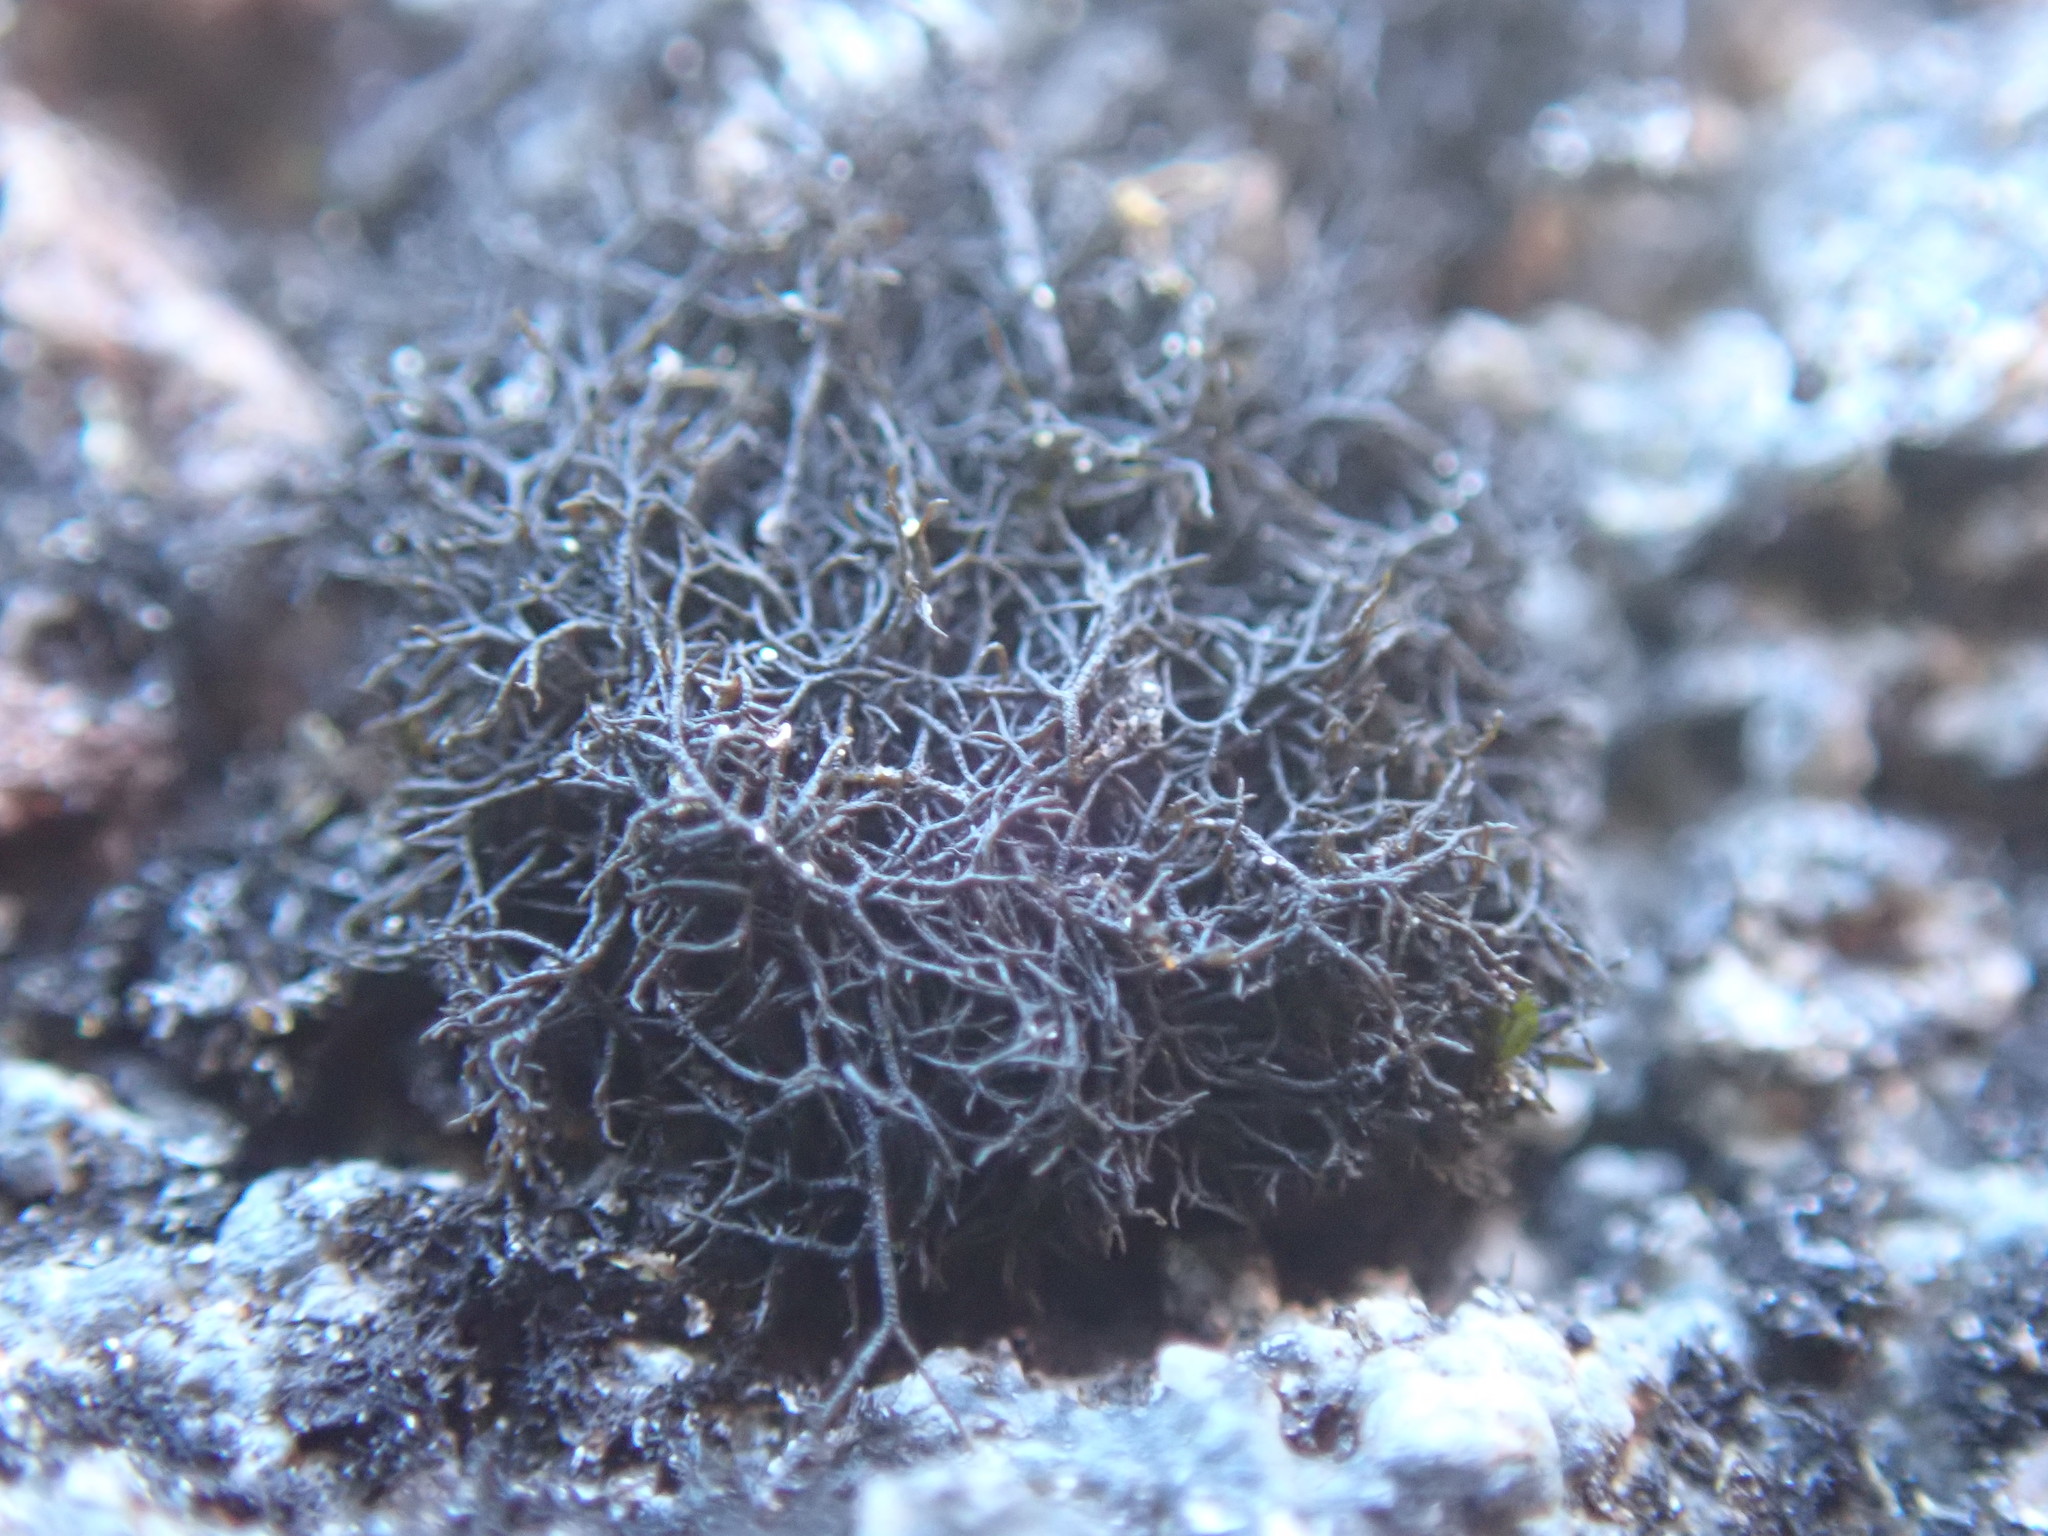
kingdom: Fungi
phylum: Ascomycota
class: Lecanoromycetes
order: Lecanorales
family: Parmeliaceae
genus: Pseudephebe
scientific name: Pseudephebe pubescens
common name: Fine rockwool lichen
